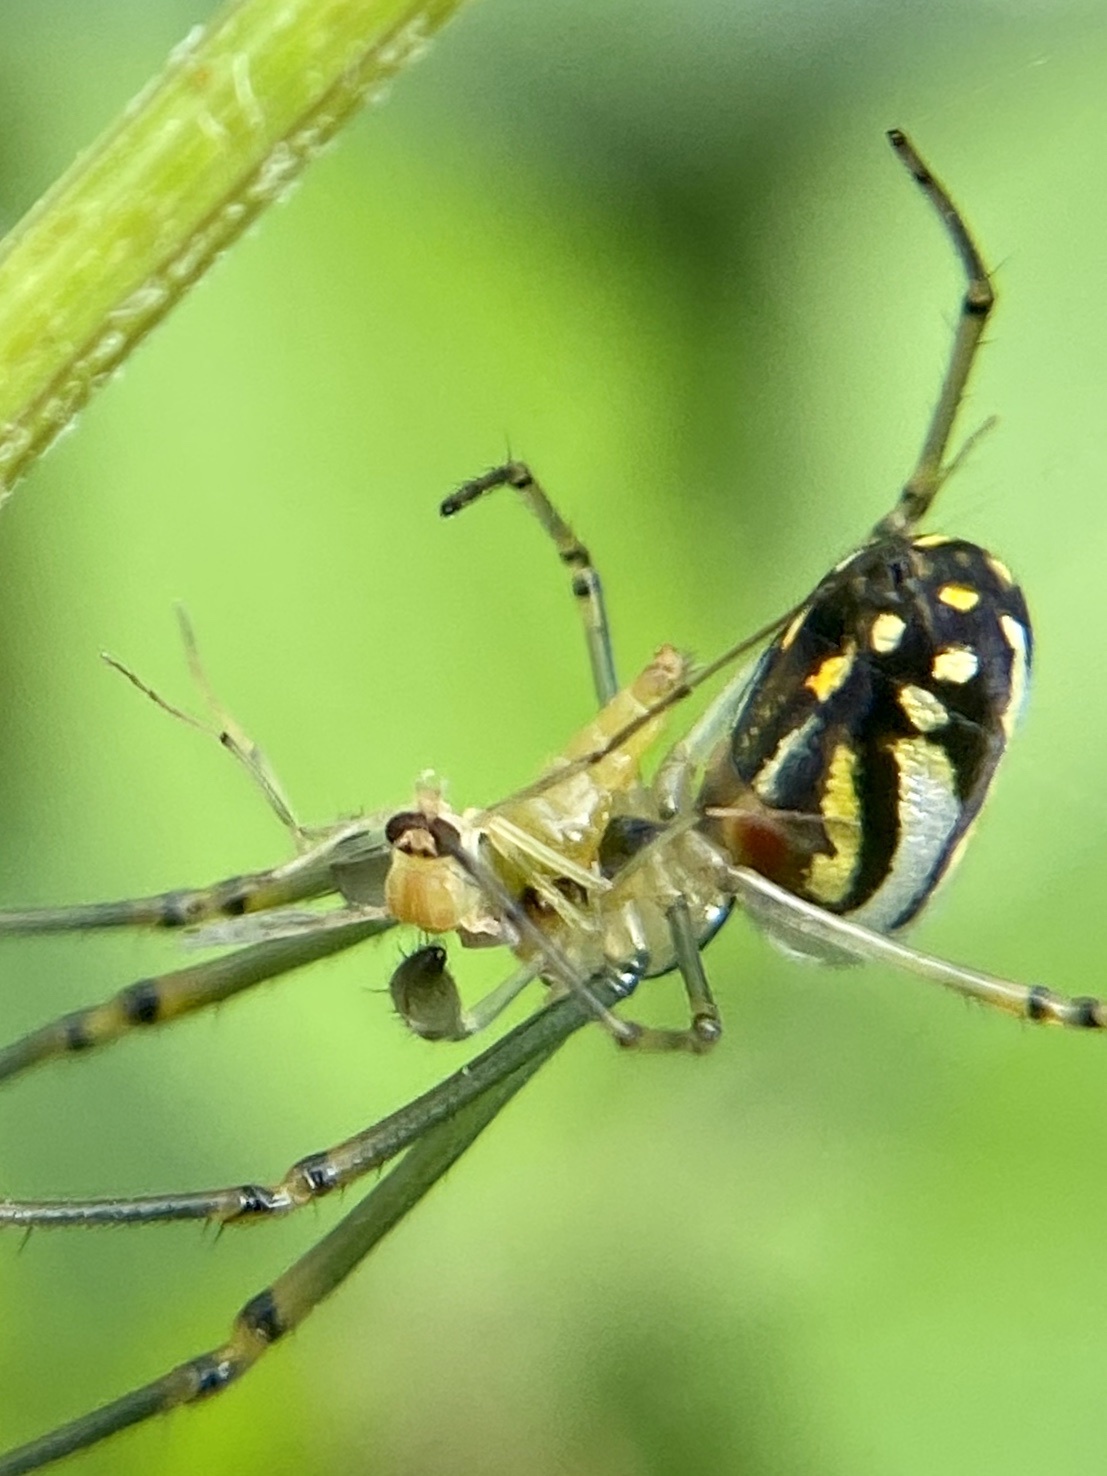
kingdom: Animalia
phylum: Arthropoda
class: Arachnida
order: Araneae
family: Tetragnathidae
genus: Leucauge
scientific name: Leucauge argyra
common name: Longjawed orb weavers
